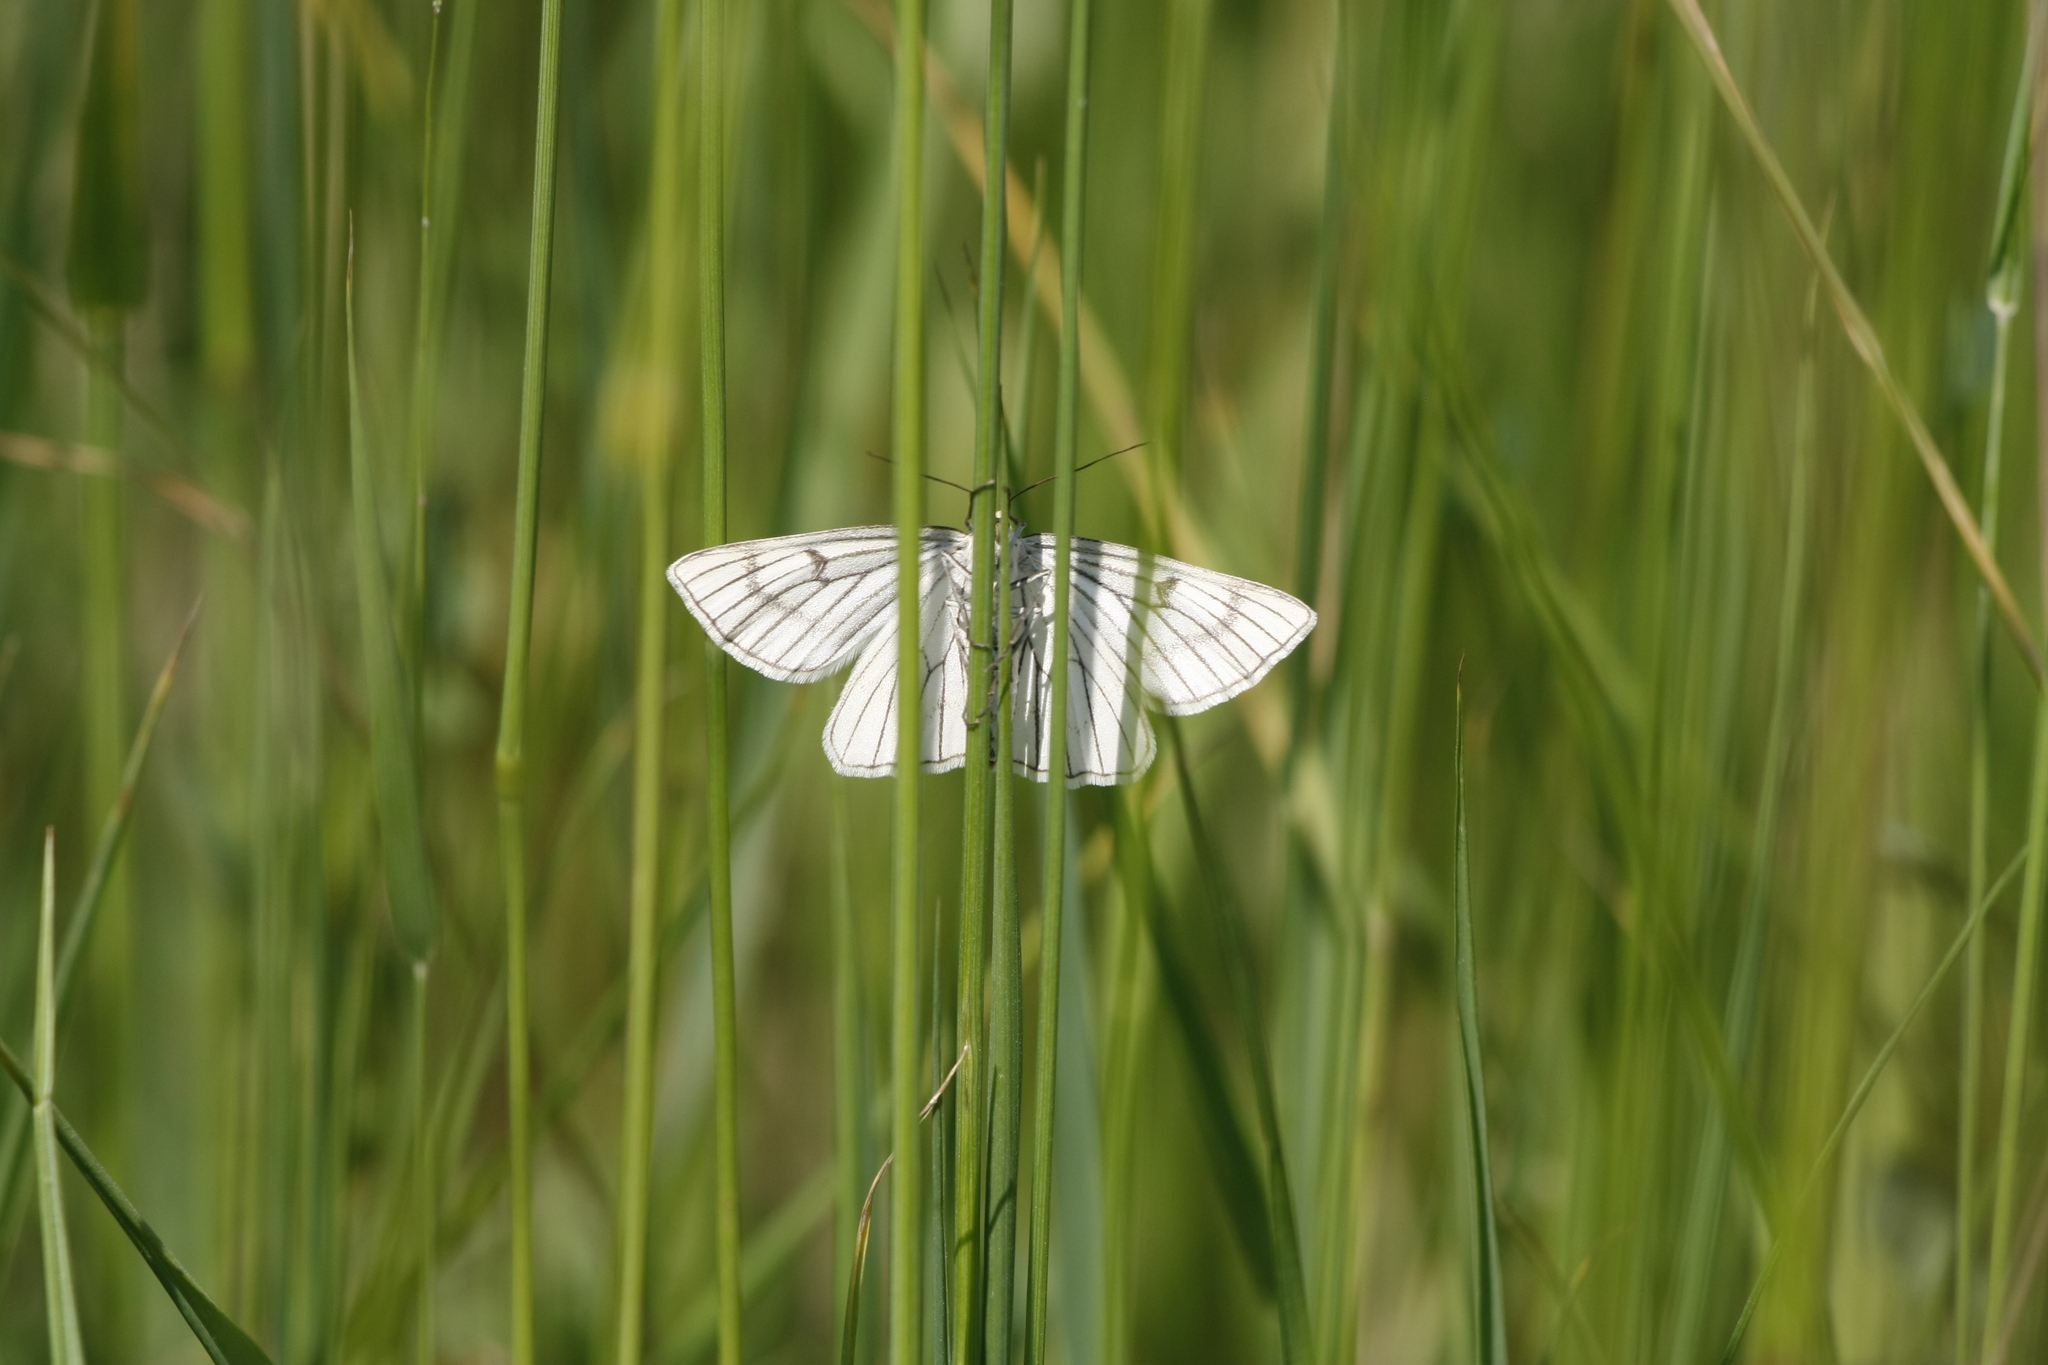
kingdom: Animalia
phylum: Arthropoda
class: Insecta
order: Lepidoptera
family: Geometridae
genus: Siona
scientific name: Siona lineata
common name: Black-veined moth
